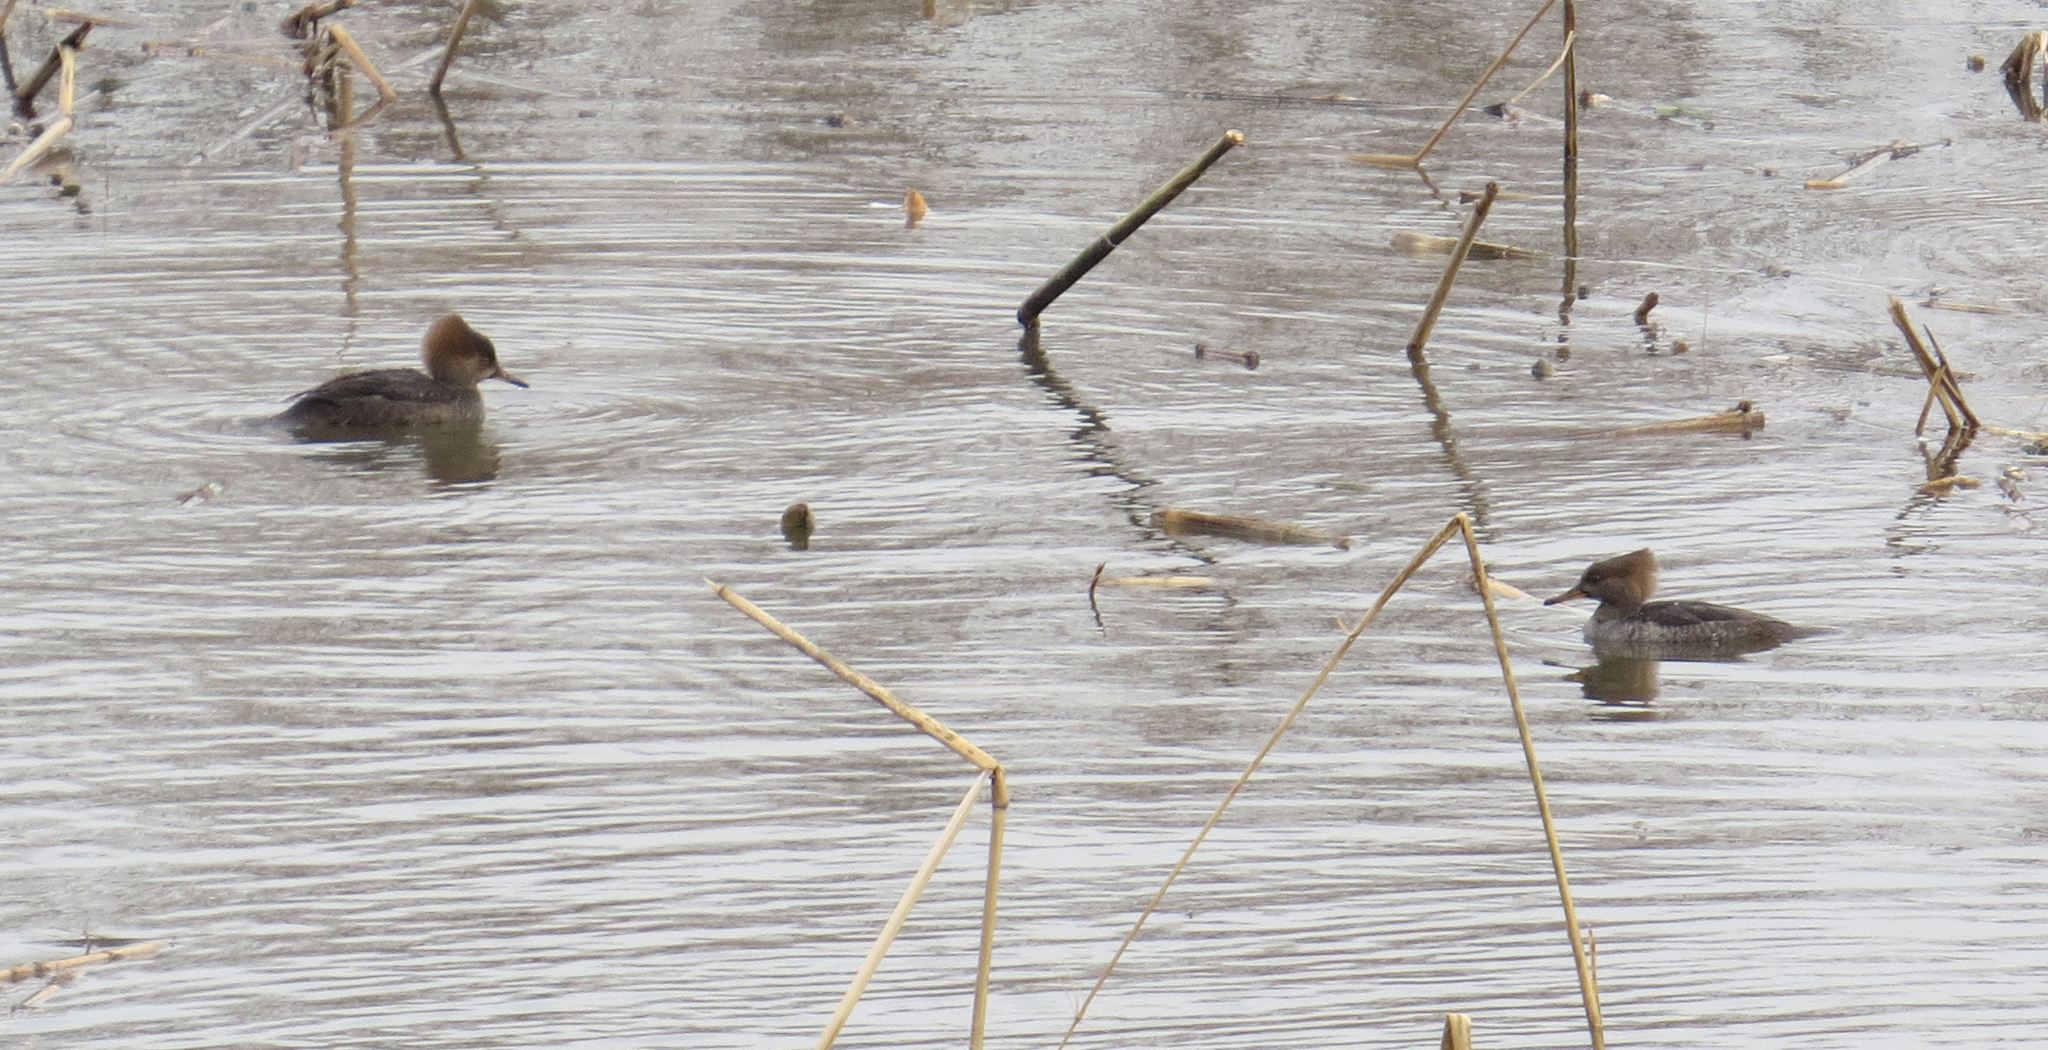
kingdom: Animalia
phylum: Chordata
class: Aves
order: Anseriformes
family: Anatidae
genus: Lophodytes
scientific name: Lophodytes cucullatus
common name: Hooded merganser
